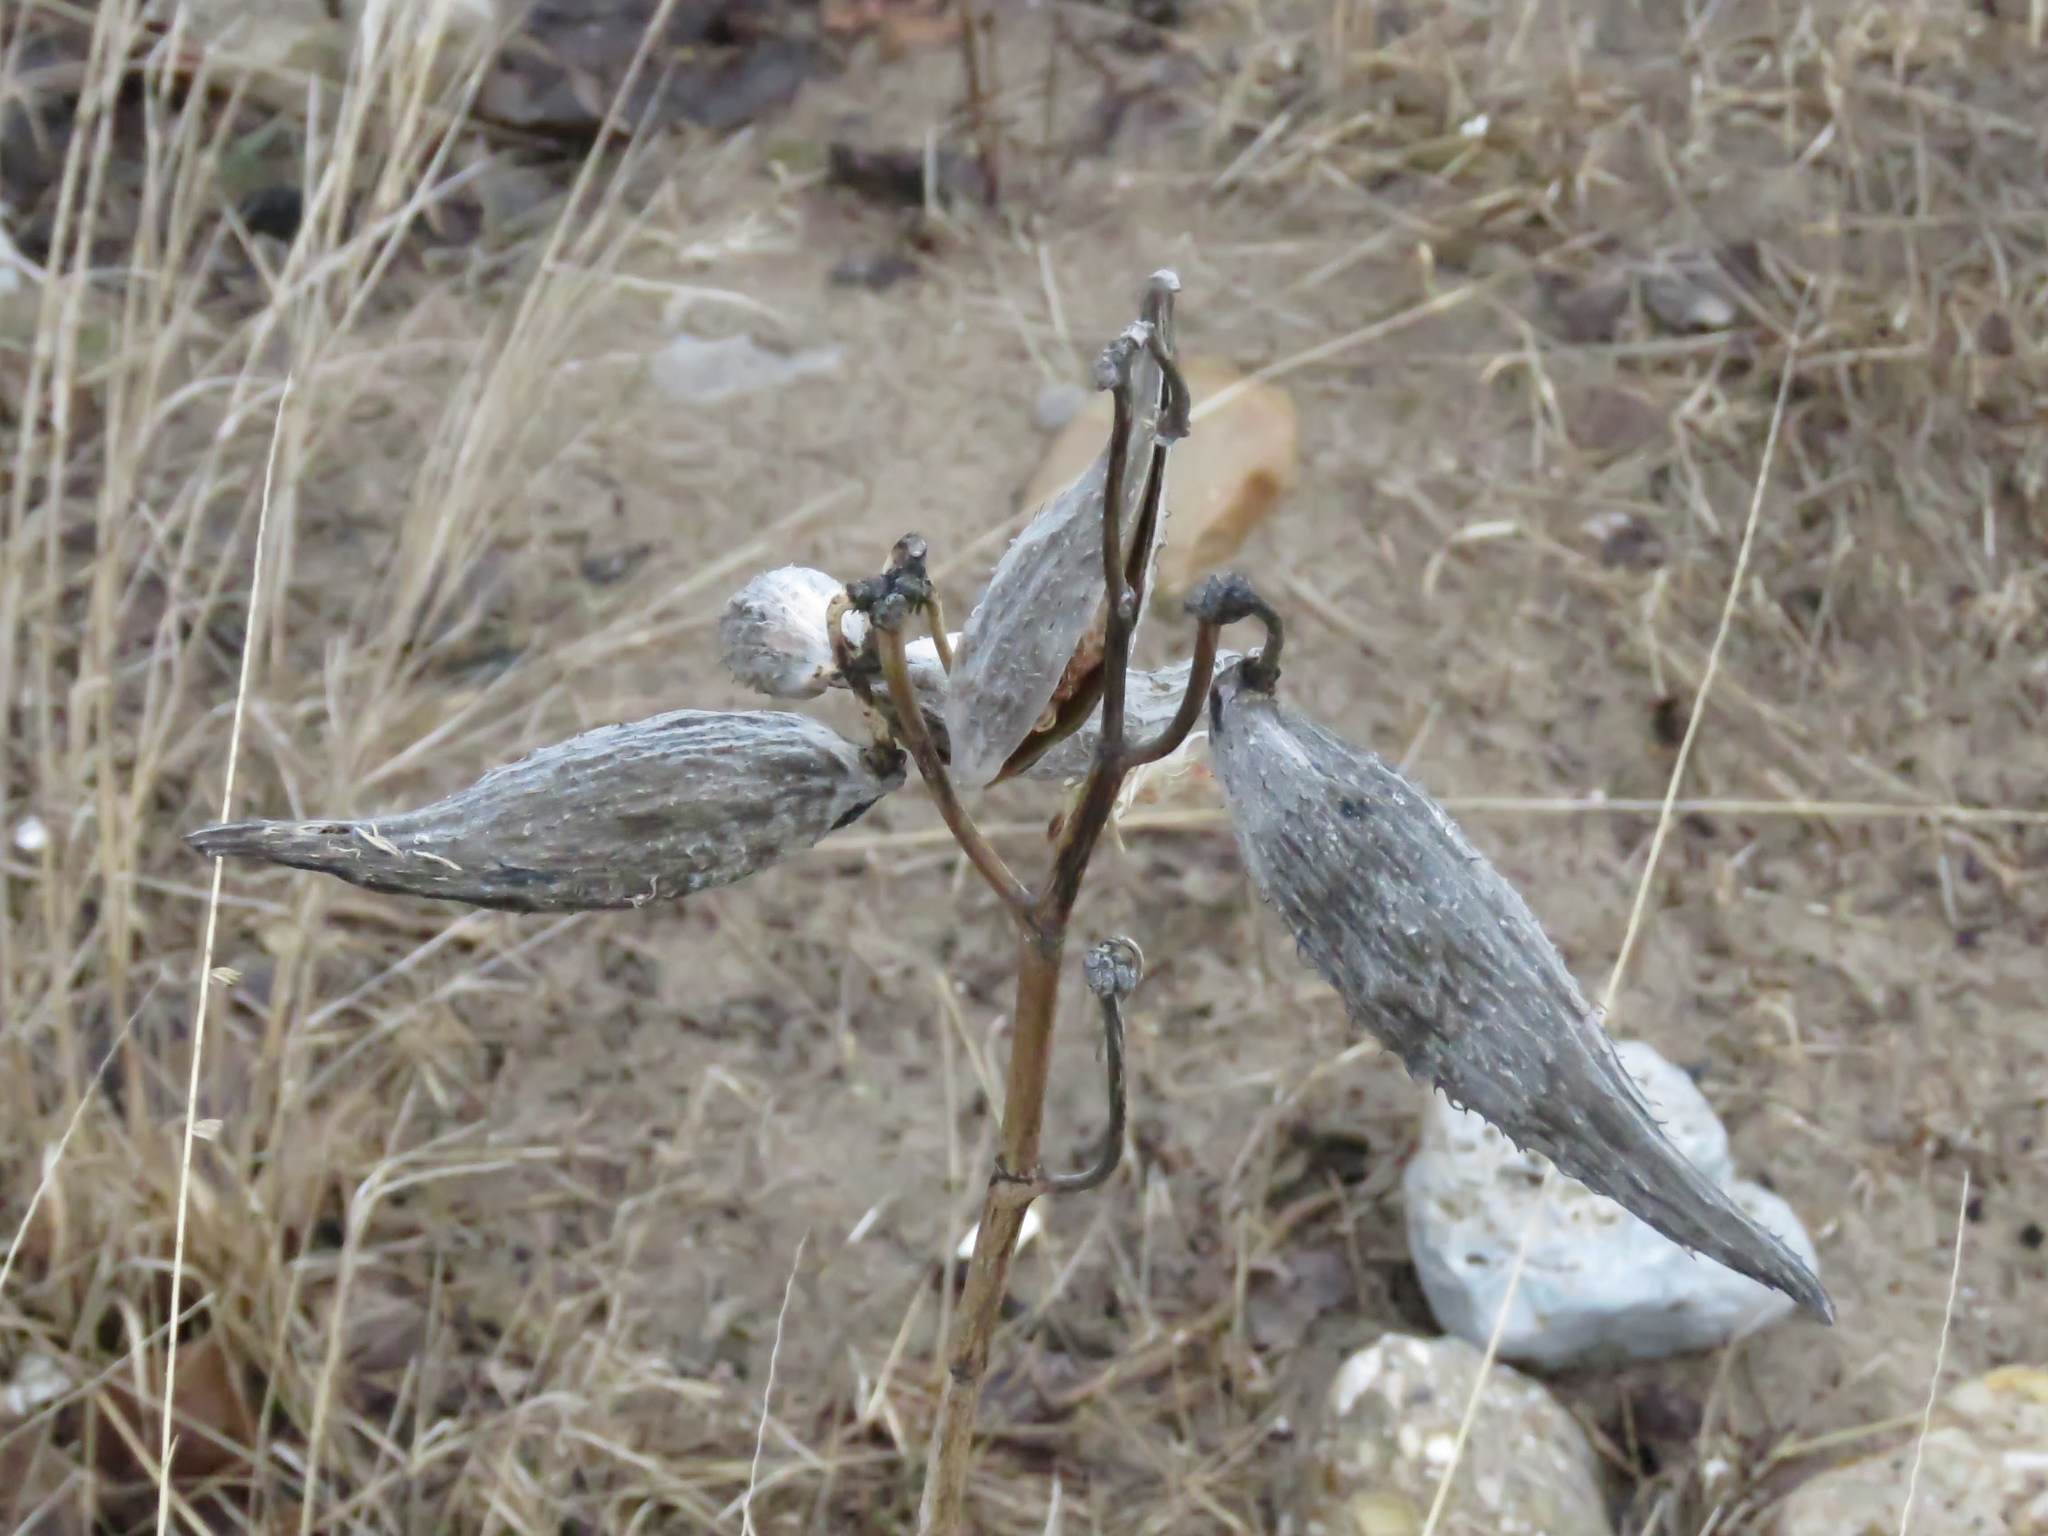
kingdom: Plantae
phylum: Tracheophyta
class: Magnoliopsida
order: Gentianales
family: Apocynaceae
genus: Asclepias
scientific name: Asclepias syriaca
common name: Common milkweed
